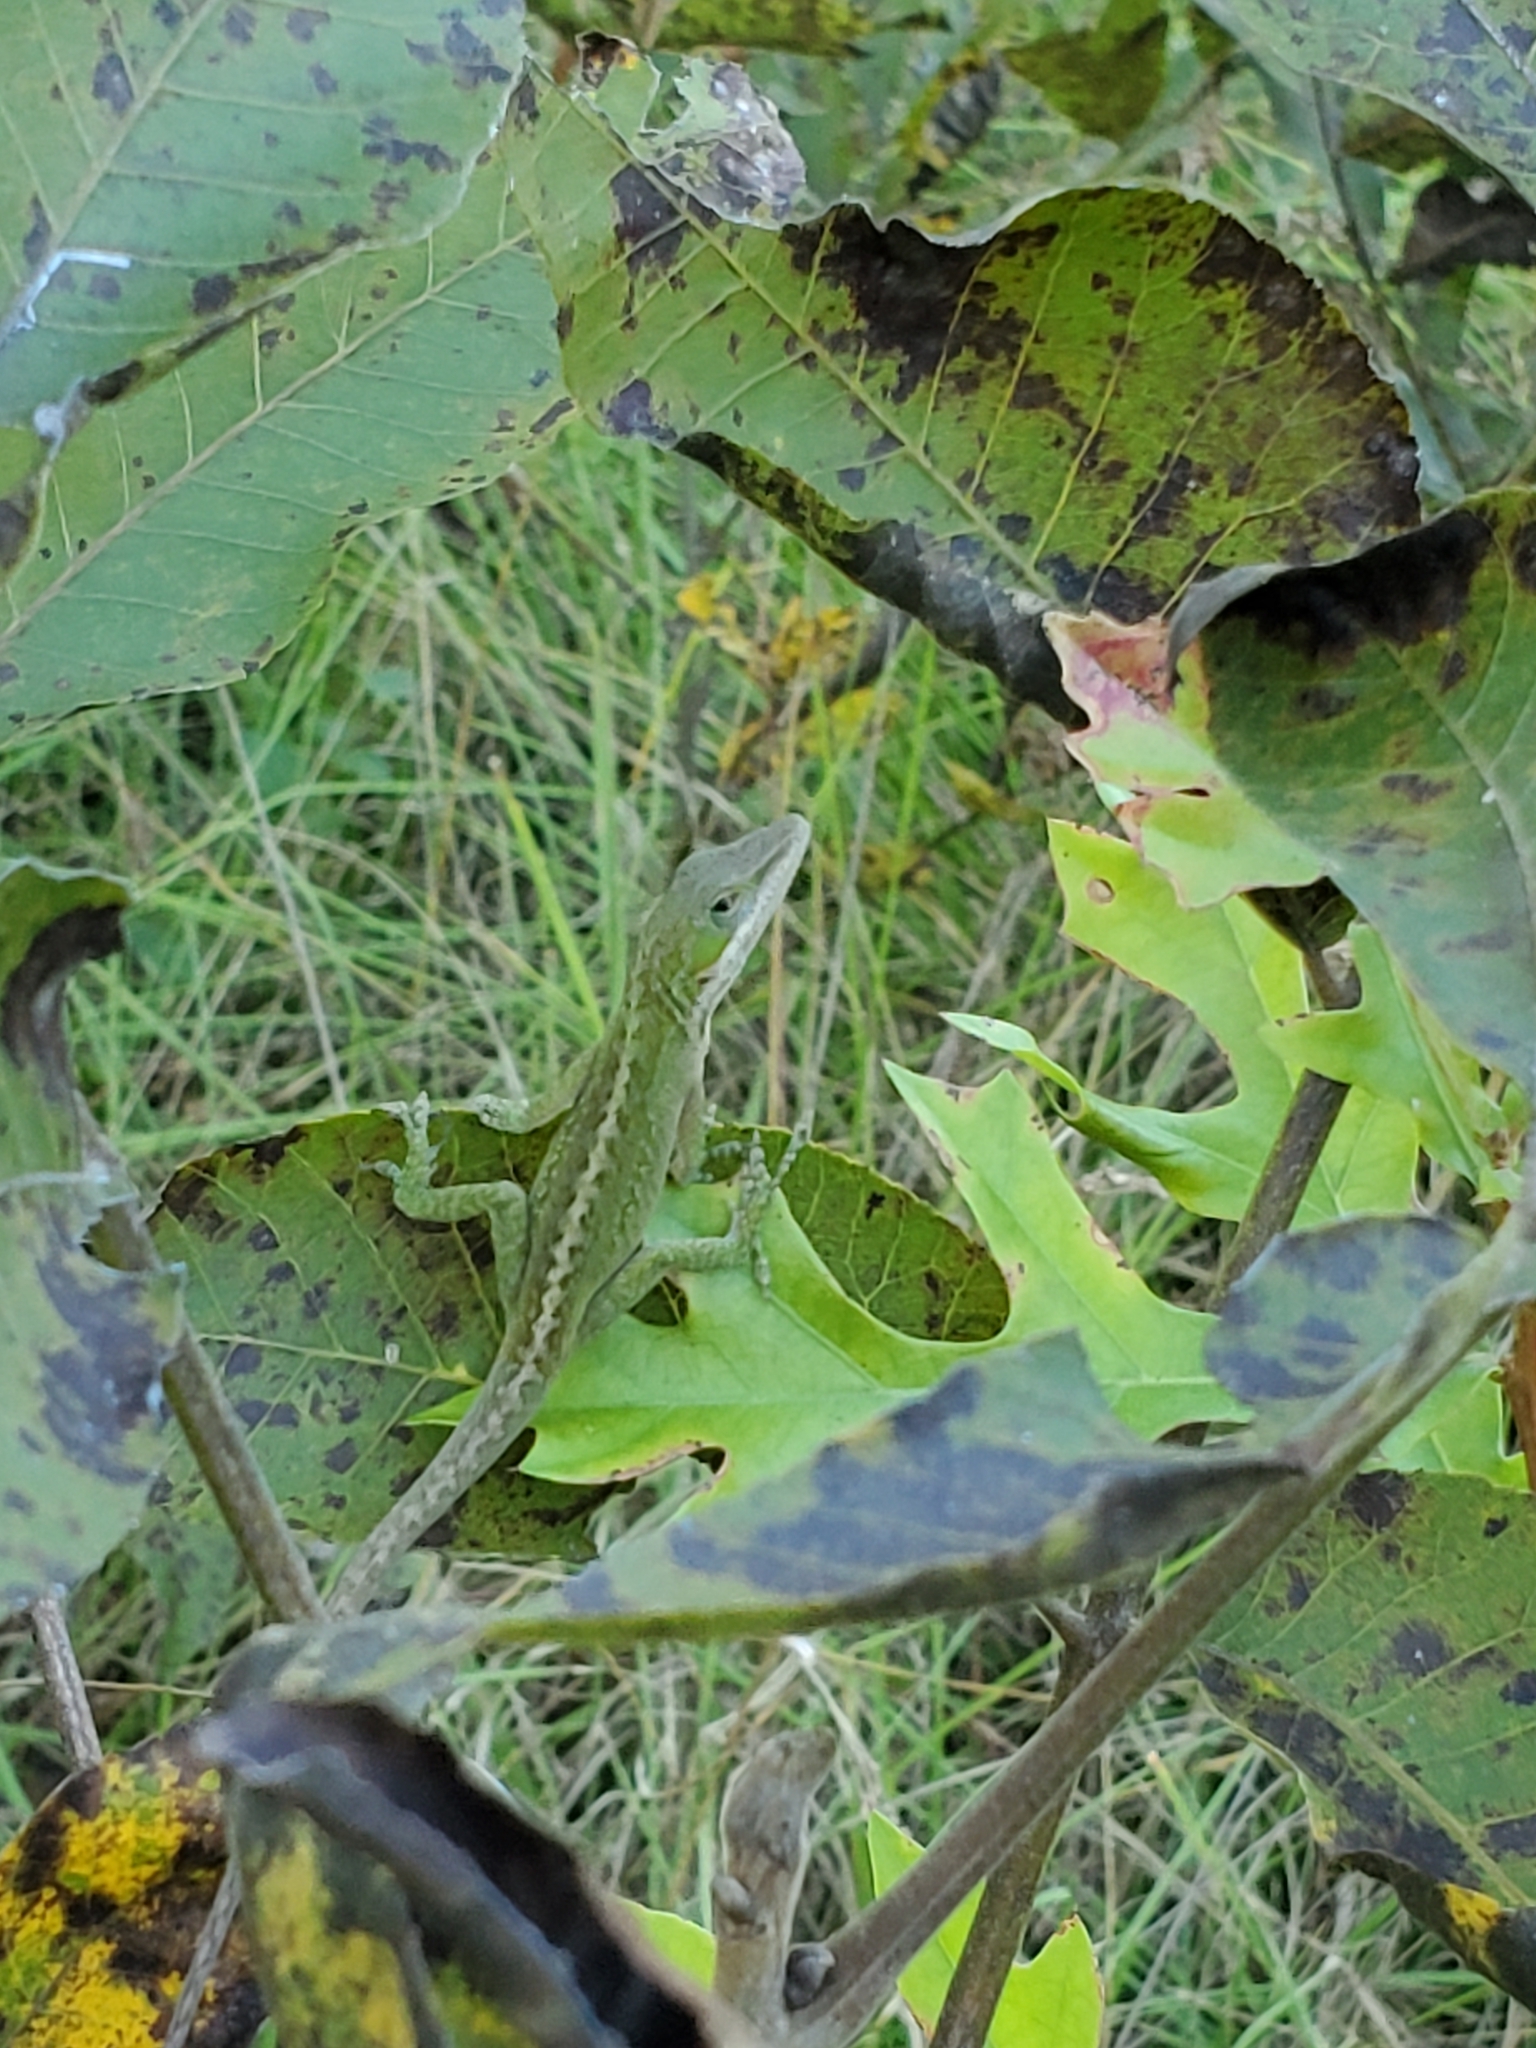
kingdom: Animalia
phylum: Chordata
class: Squamata
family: Dactyloidae
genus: Anolis
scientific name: Anolis carolinensis
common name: Green anole
